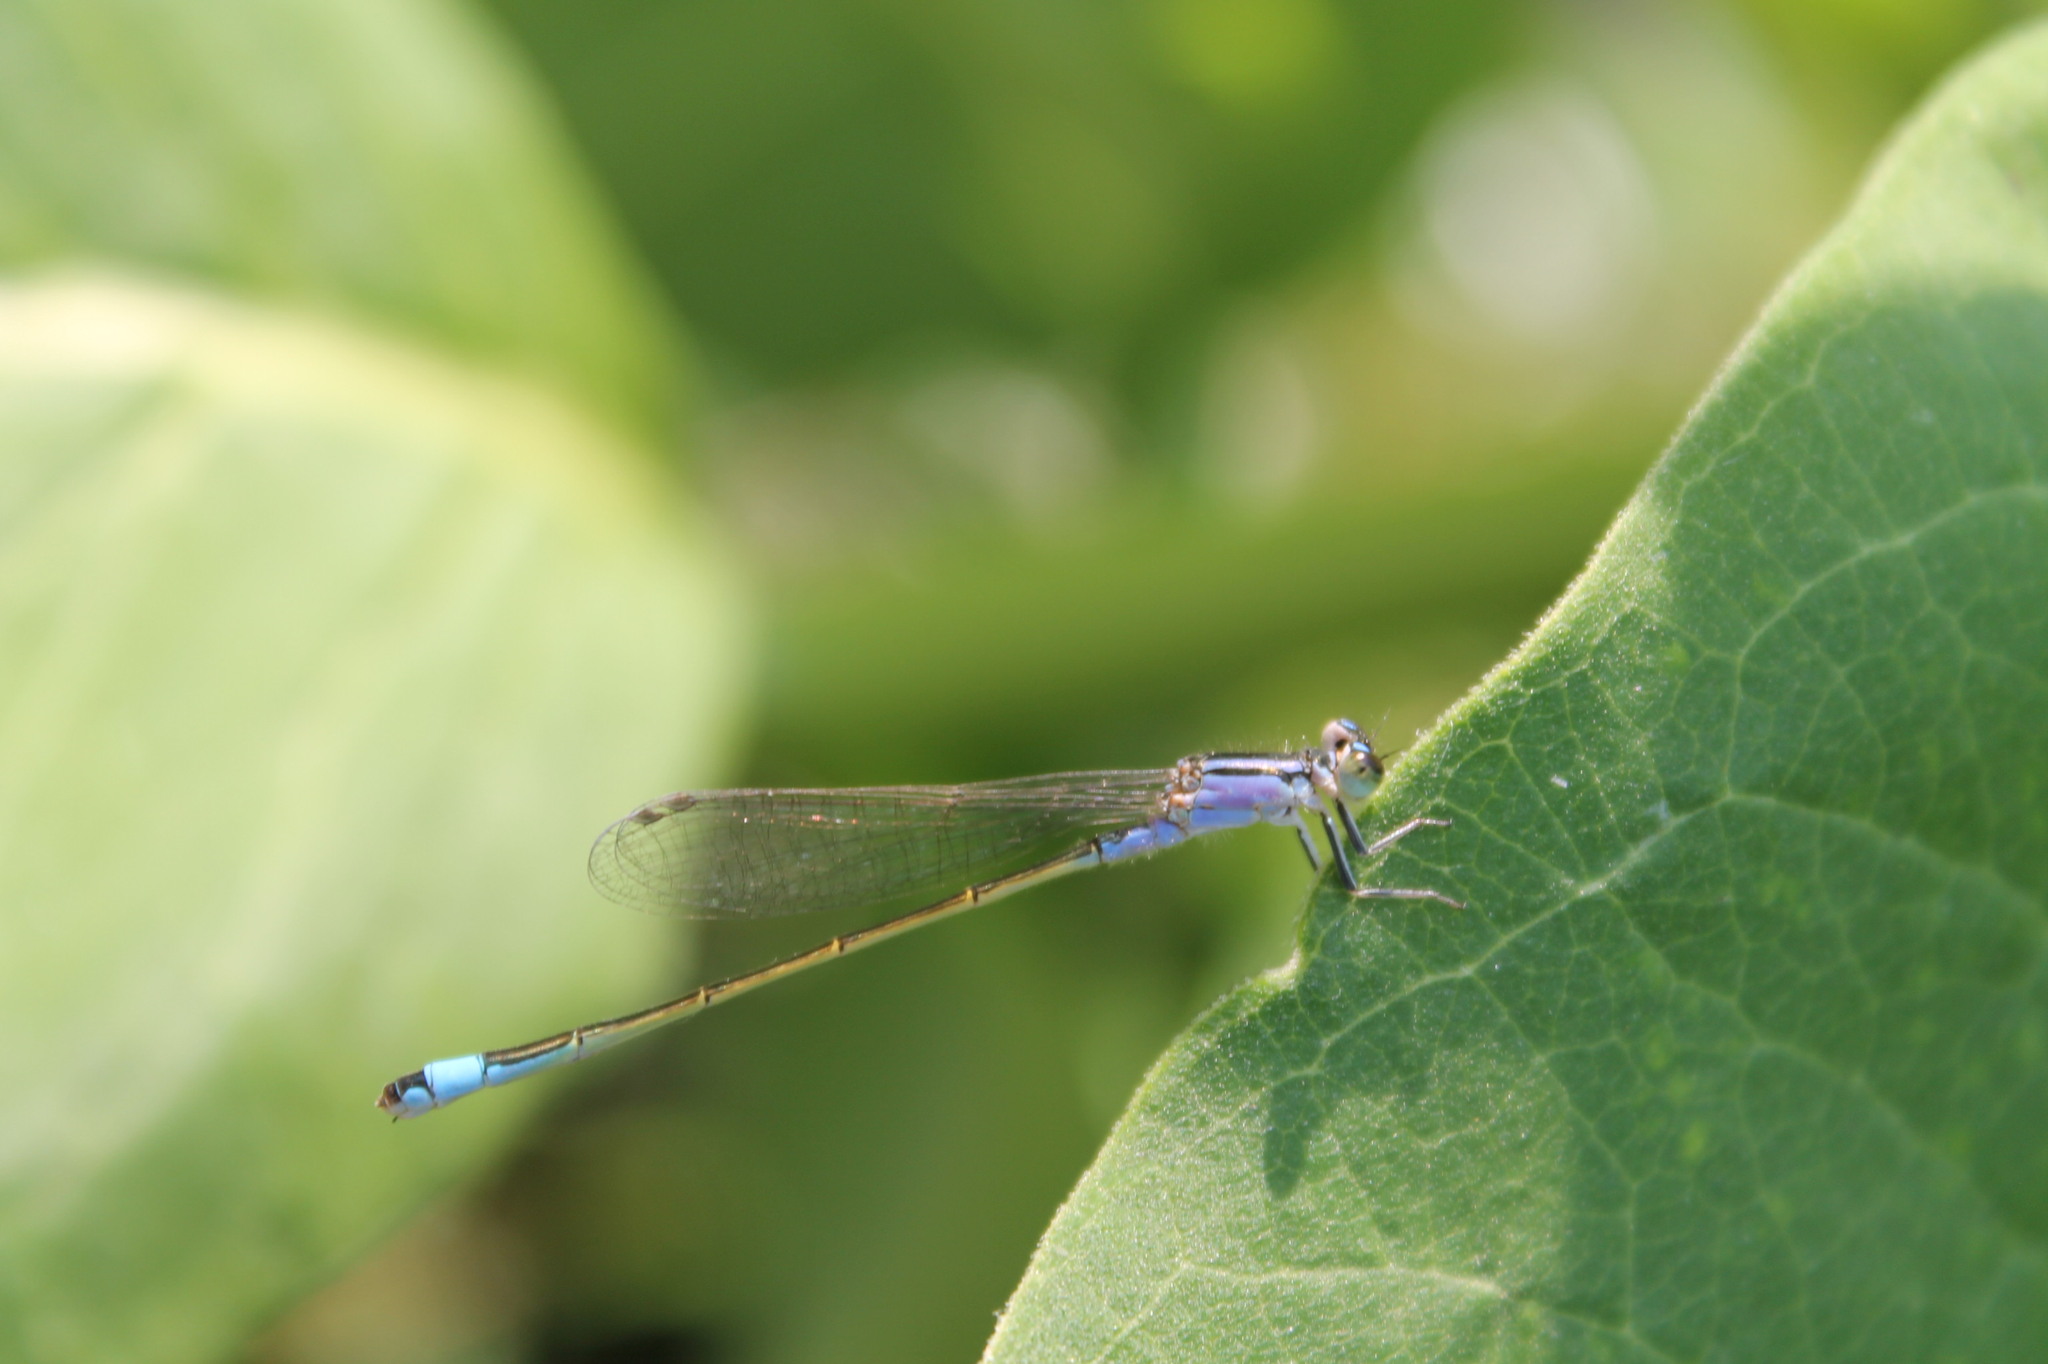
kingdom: Animalia
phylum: Arthropoda
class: Insecta
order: Odonata
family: Coenagrionidae
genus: Ischnura
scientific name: Ischnura elegans
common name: Blue-tailed damselfly
